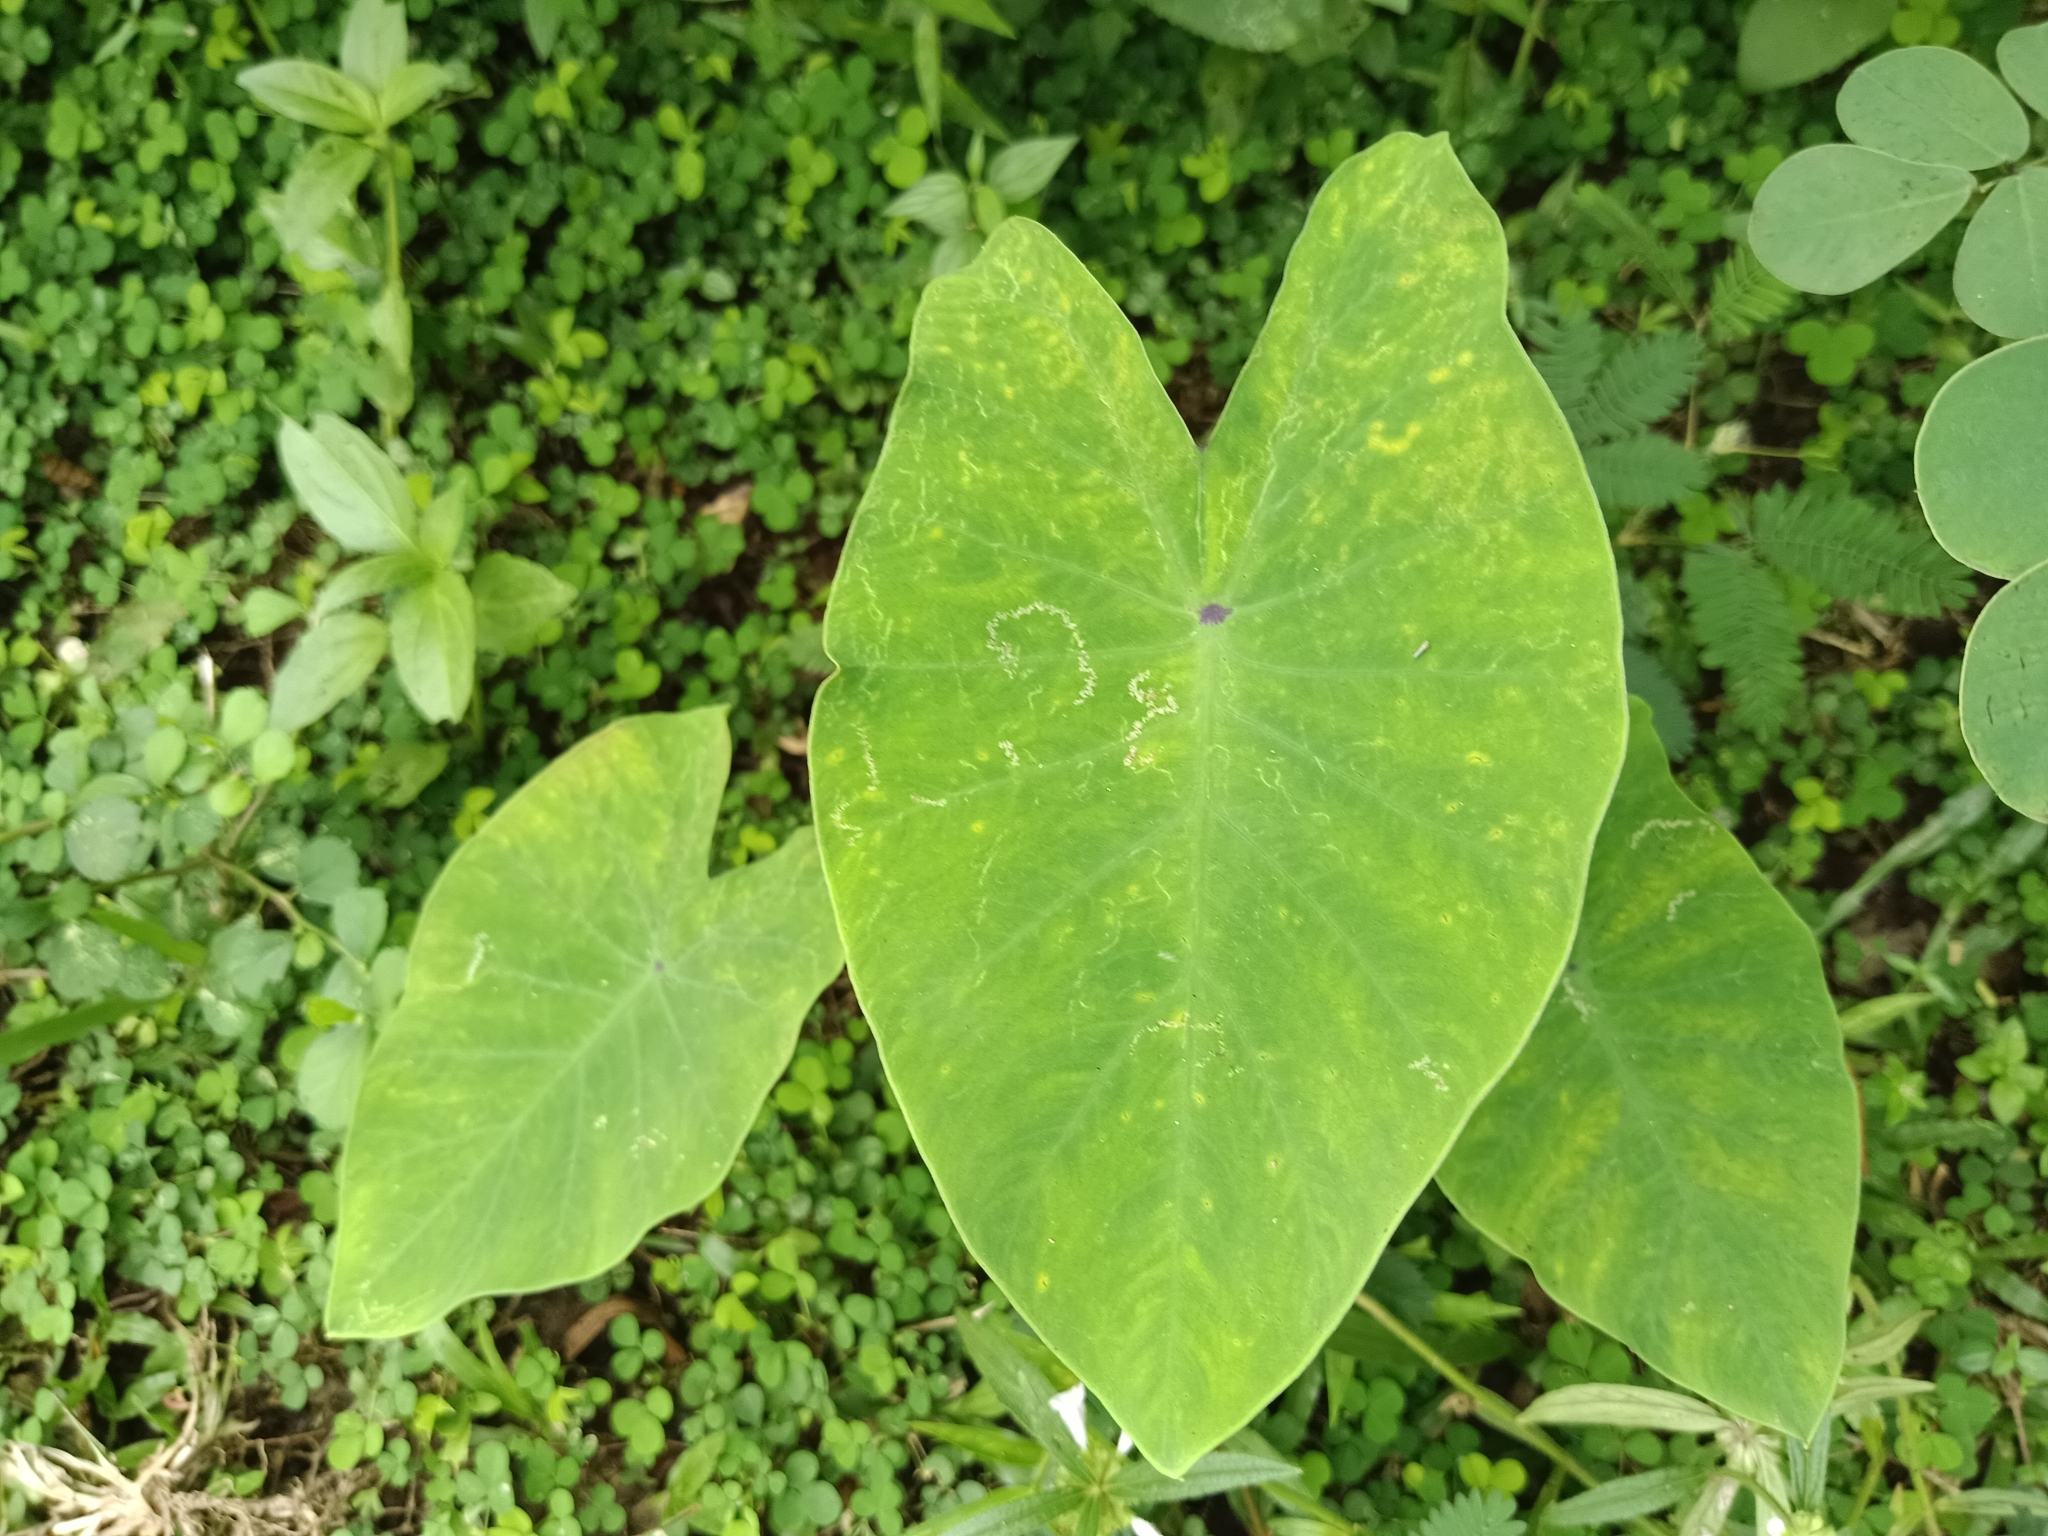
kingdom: Plantae
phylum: Tracheophyta
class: Liliopsida
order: Alismatales
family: Araceae
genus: Colocasia
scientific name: Colocasia esculenta
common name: Taro
